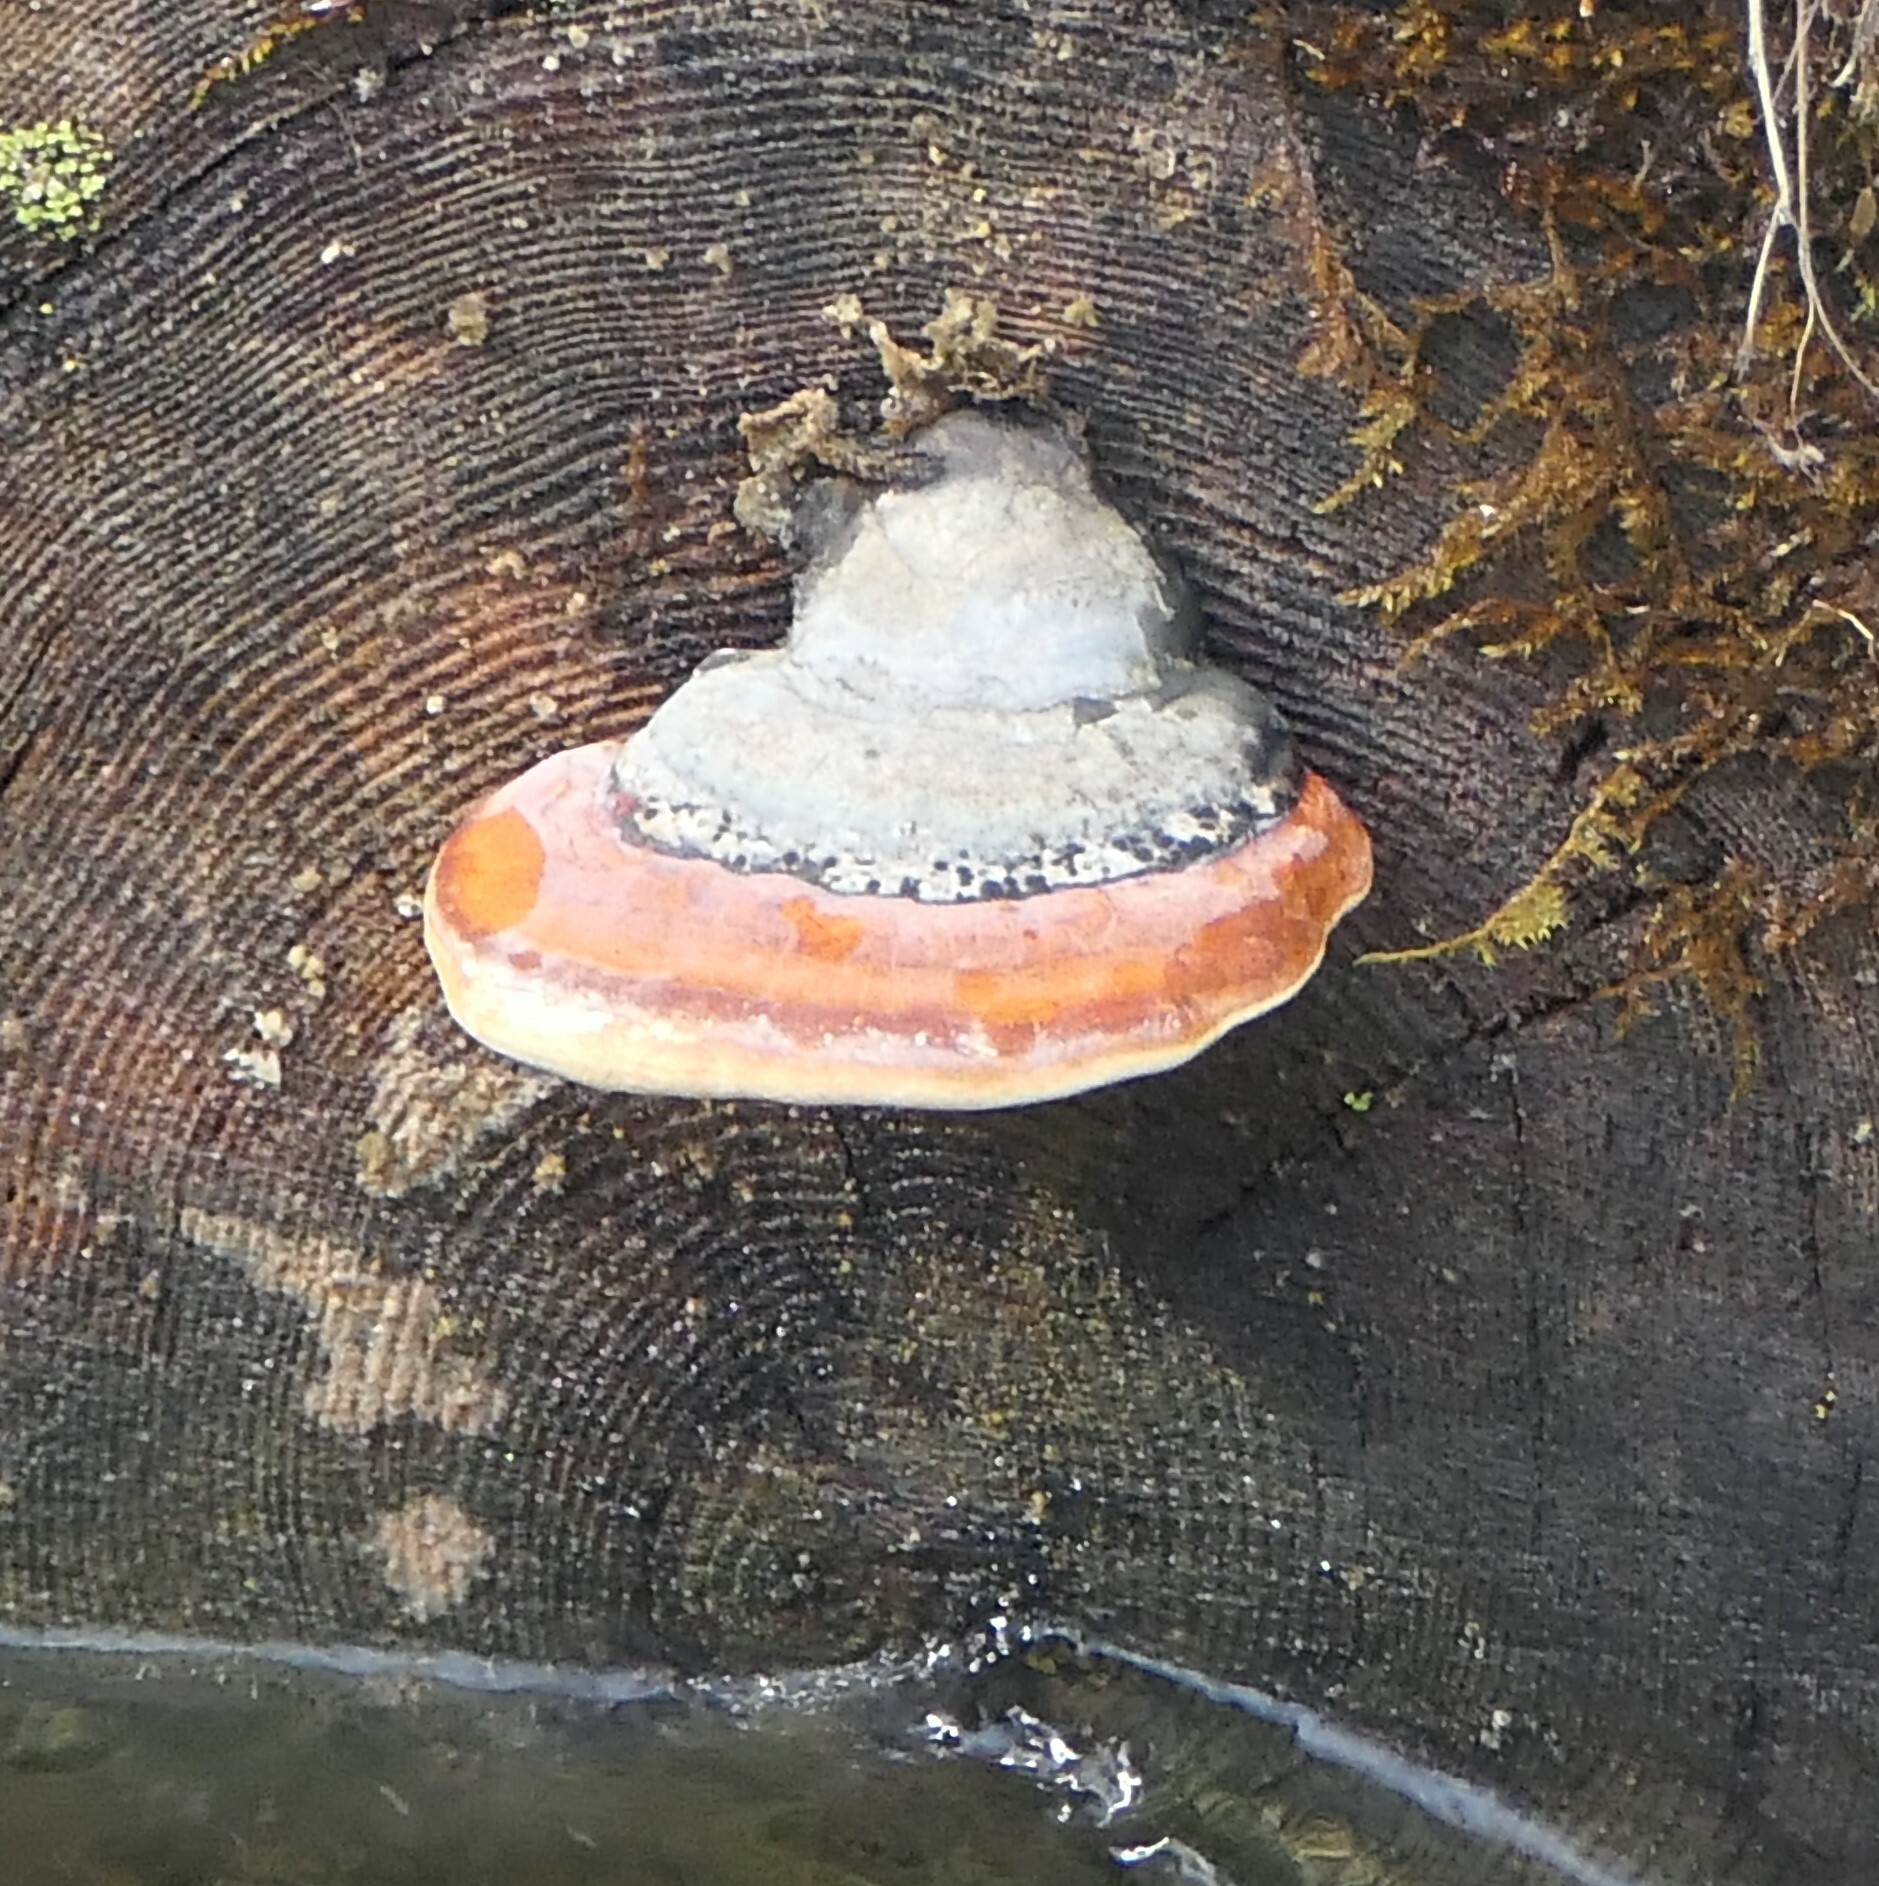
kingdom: Fungi
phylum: Basidiomycota
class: Agaricomycetes
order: Polyporales
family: Fomitopsidaceae
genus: Fomitopsis
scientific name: Fomitopsis mounceae
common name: Northern red belt
